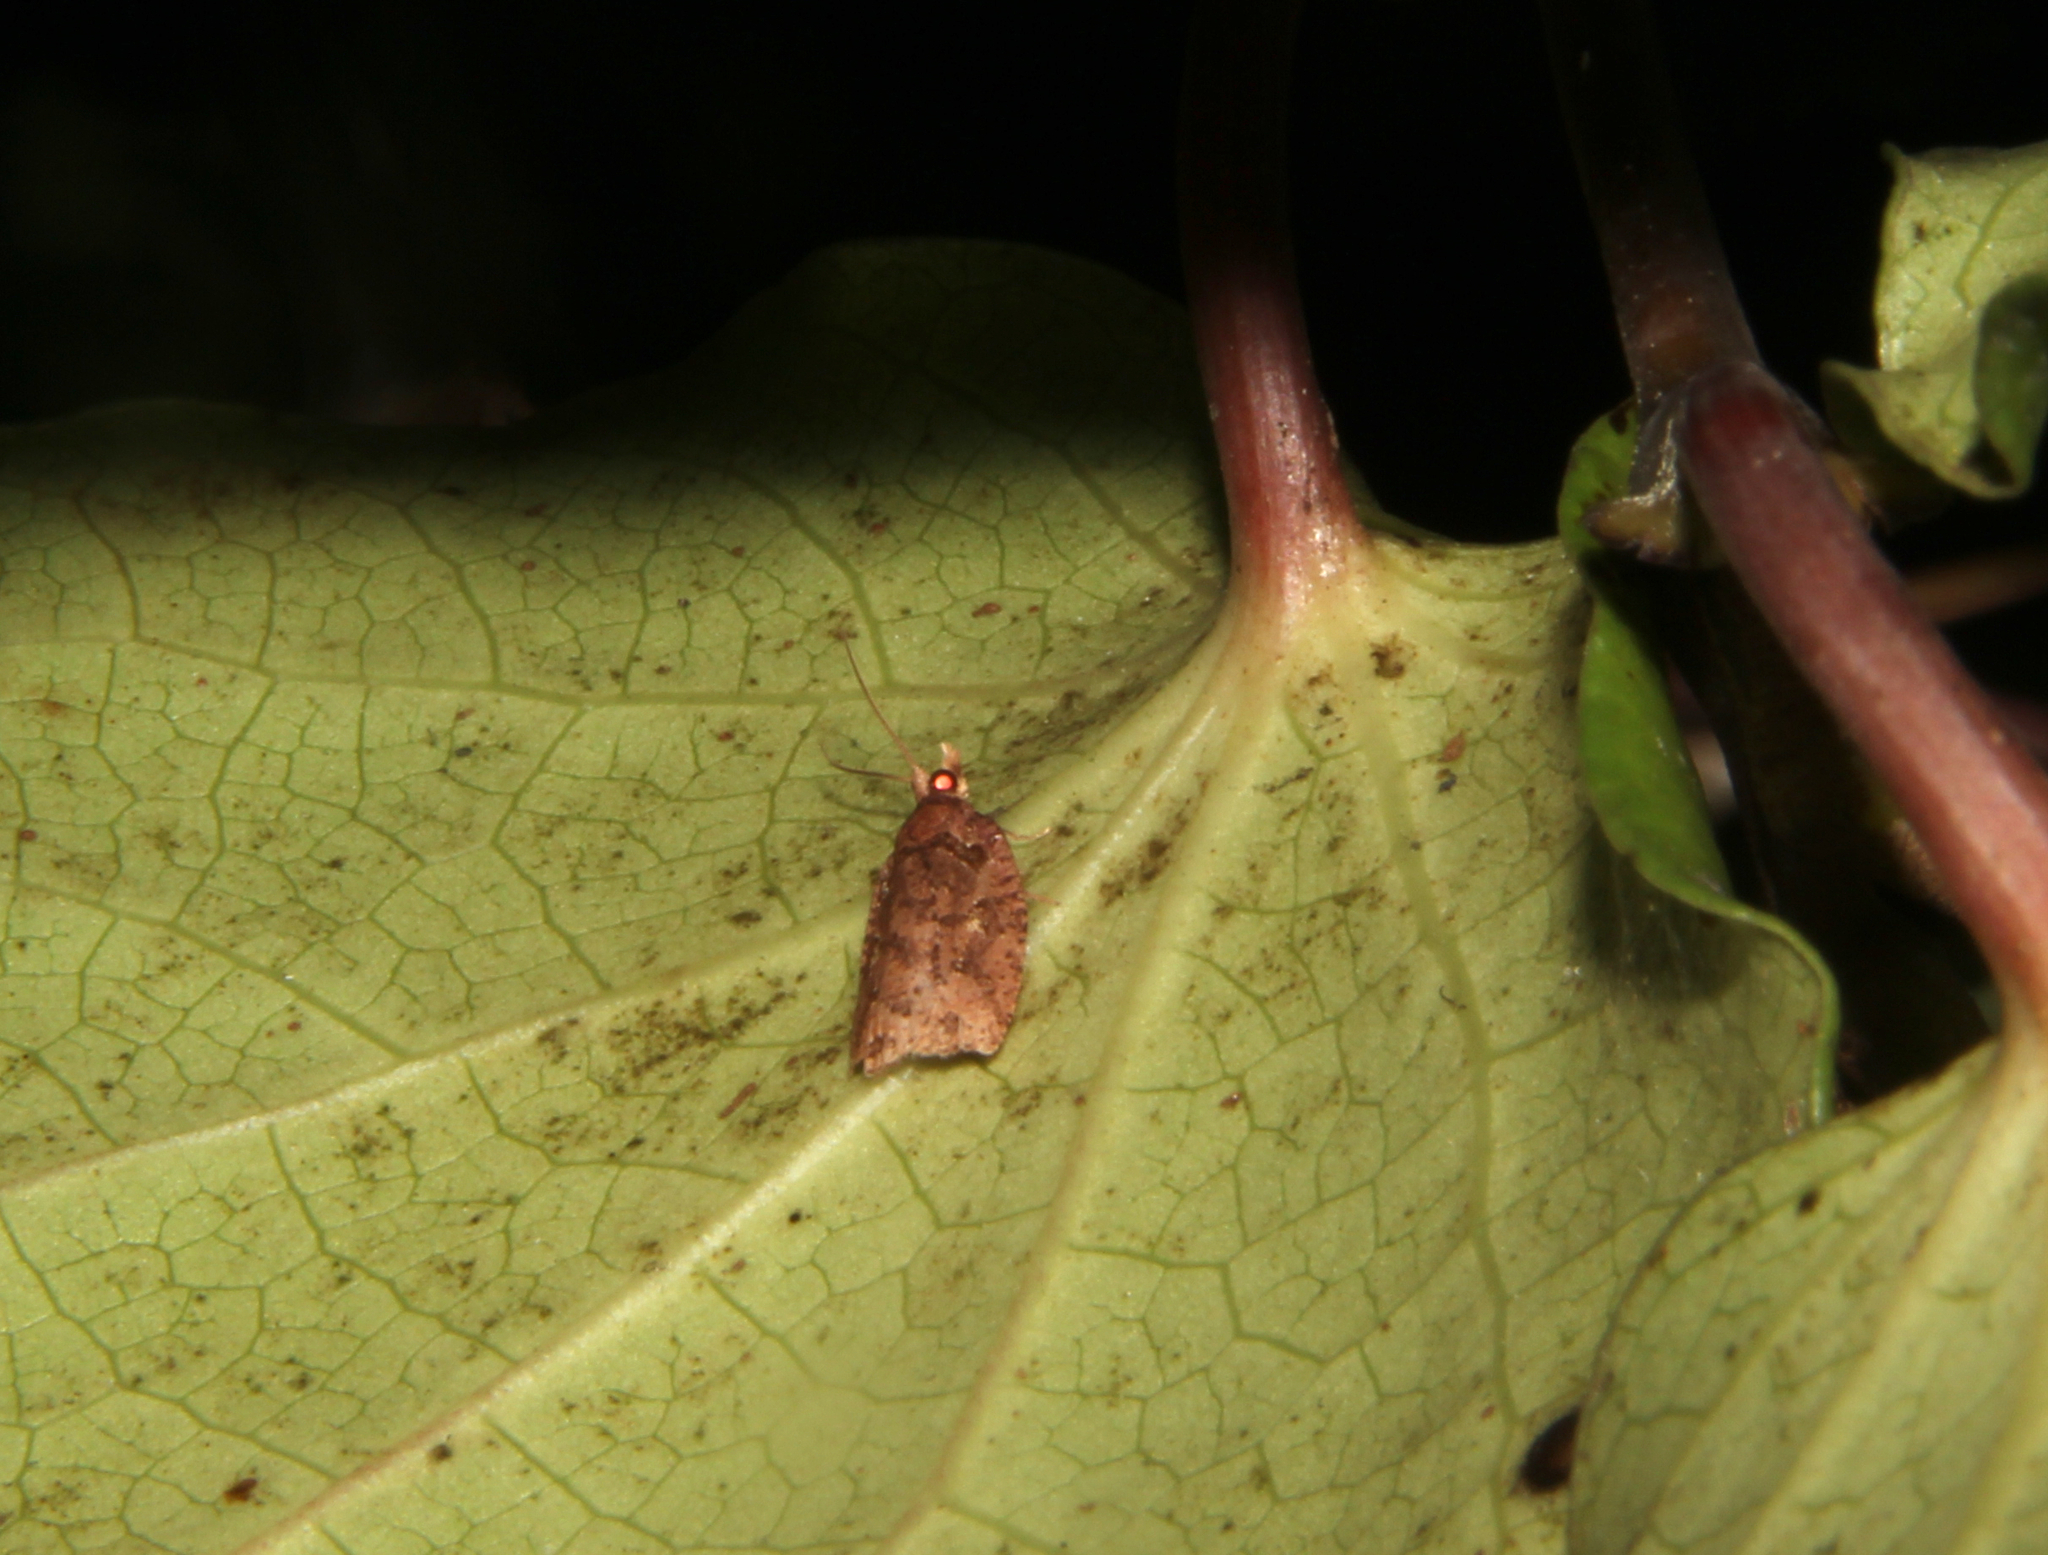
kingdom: Animalia
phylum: Arthropoda
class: Insecta
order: Lepidoptera
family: Tortricidae
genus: Ctenopseustis
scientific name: Ctenopseustis
